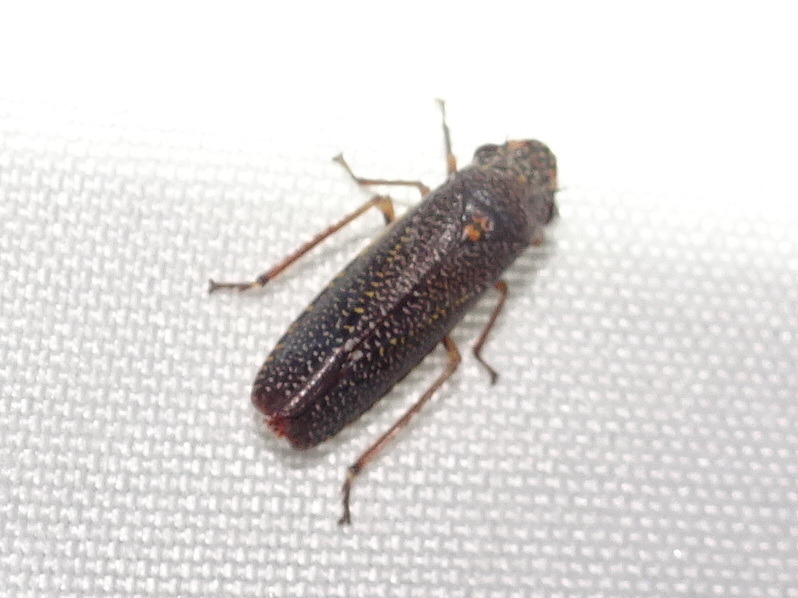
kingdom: Animalia
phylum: Arthropoda
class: Insecta
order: Hemiptera
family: Cicadellidae
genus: Paraulacizes
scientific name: Paraulacizes irrorata
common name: Speckled sharpshooter
